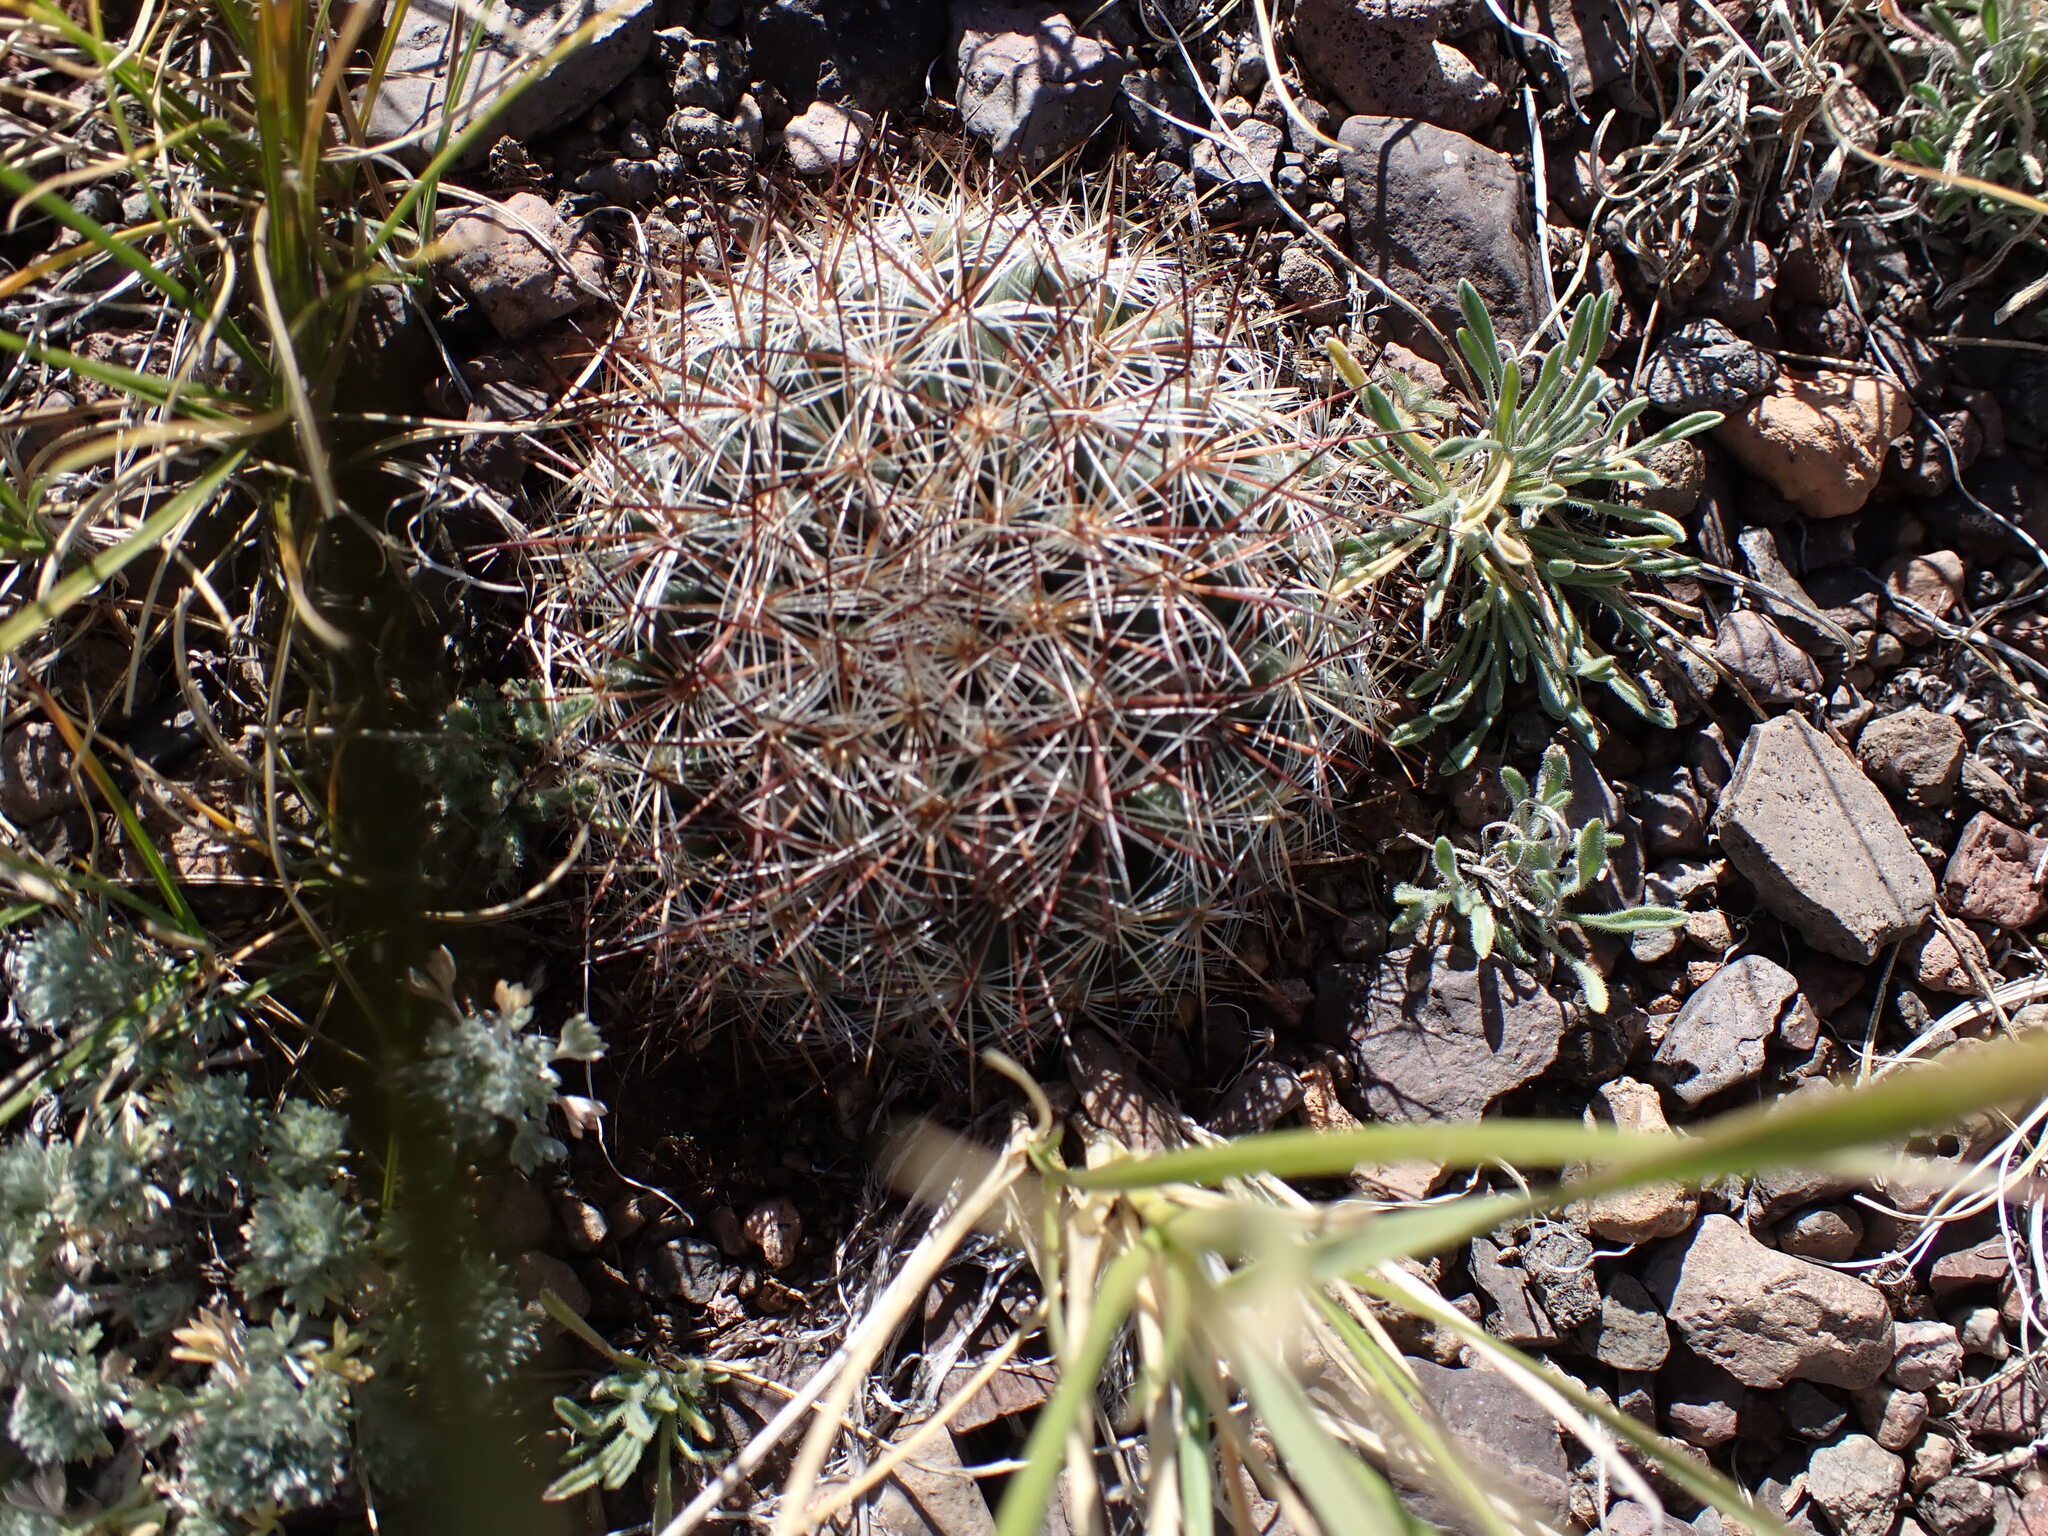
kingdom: Plantae
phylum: Tracheophyta
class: Magnoliopsida
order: Caryophyllales
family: Cactaceae
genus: Pediocactus
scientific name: Pediocactus simpsonii
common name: Simpson's hedgehog cactus
